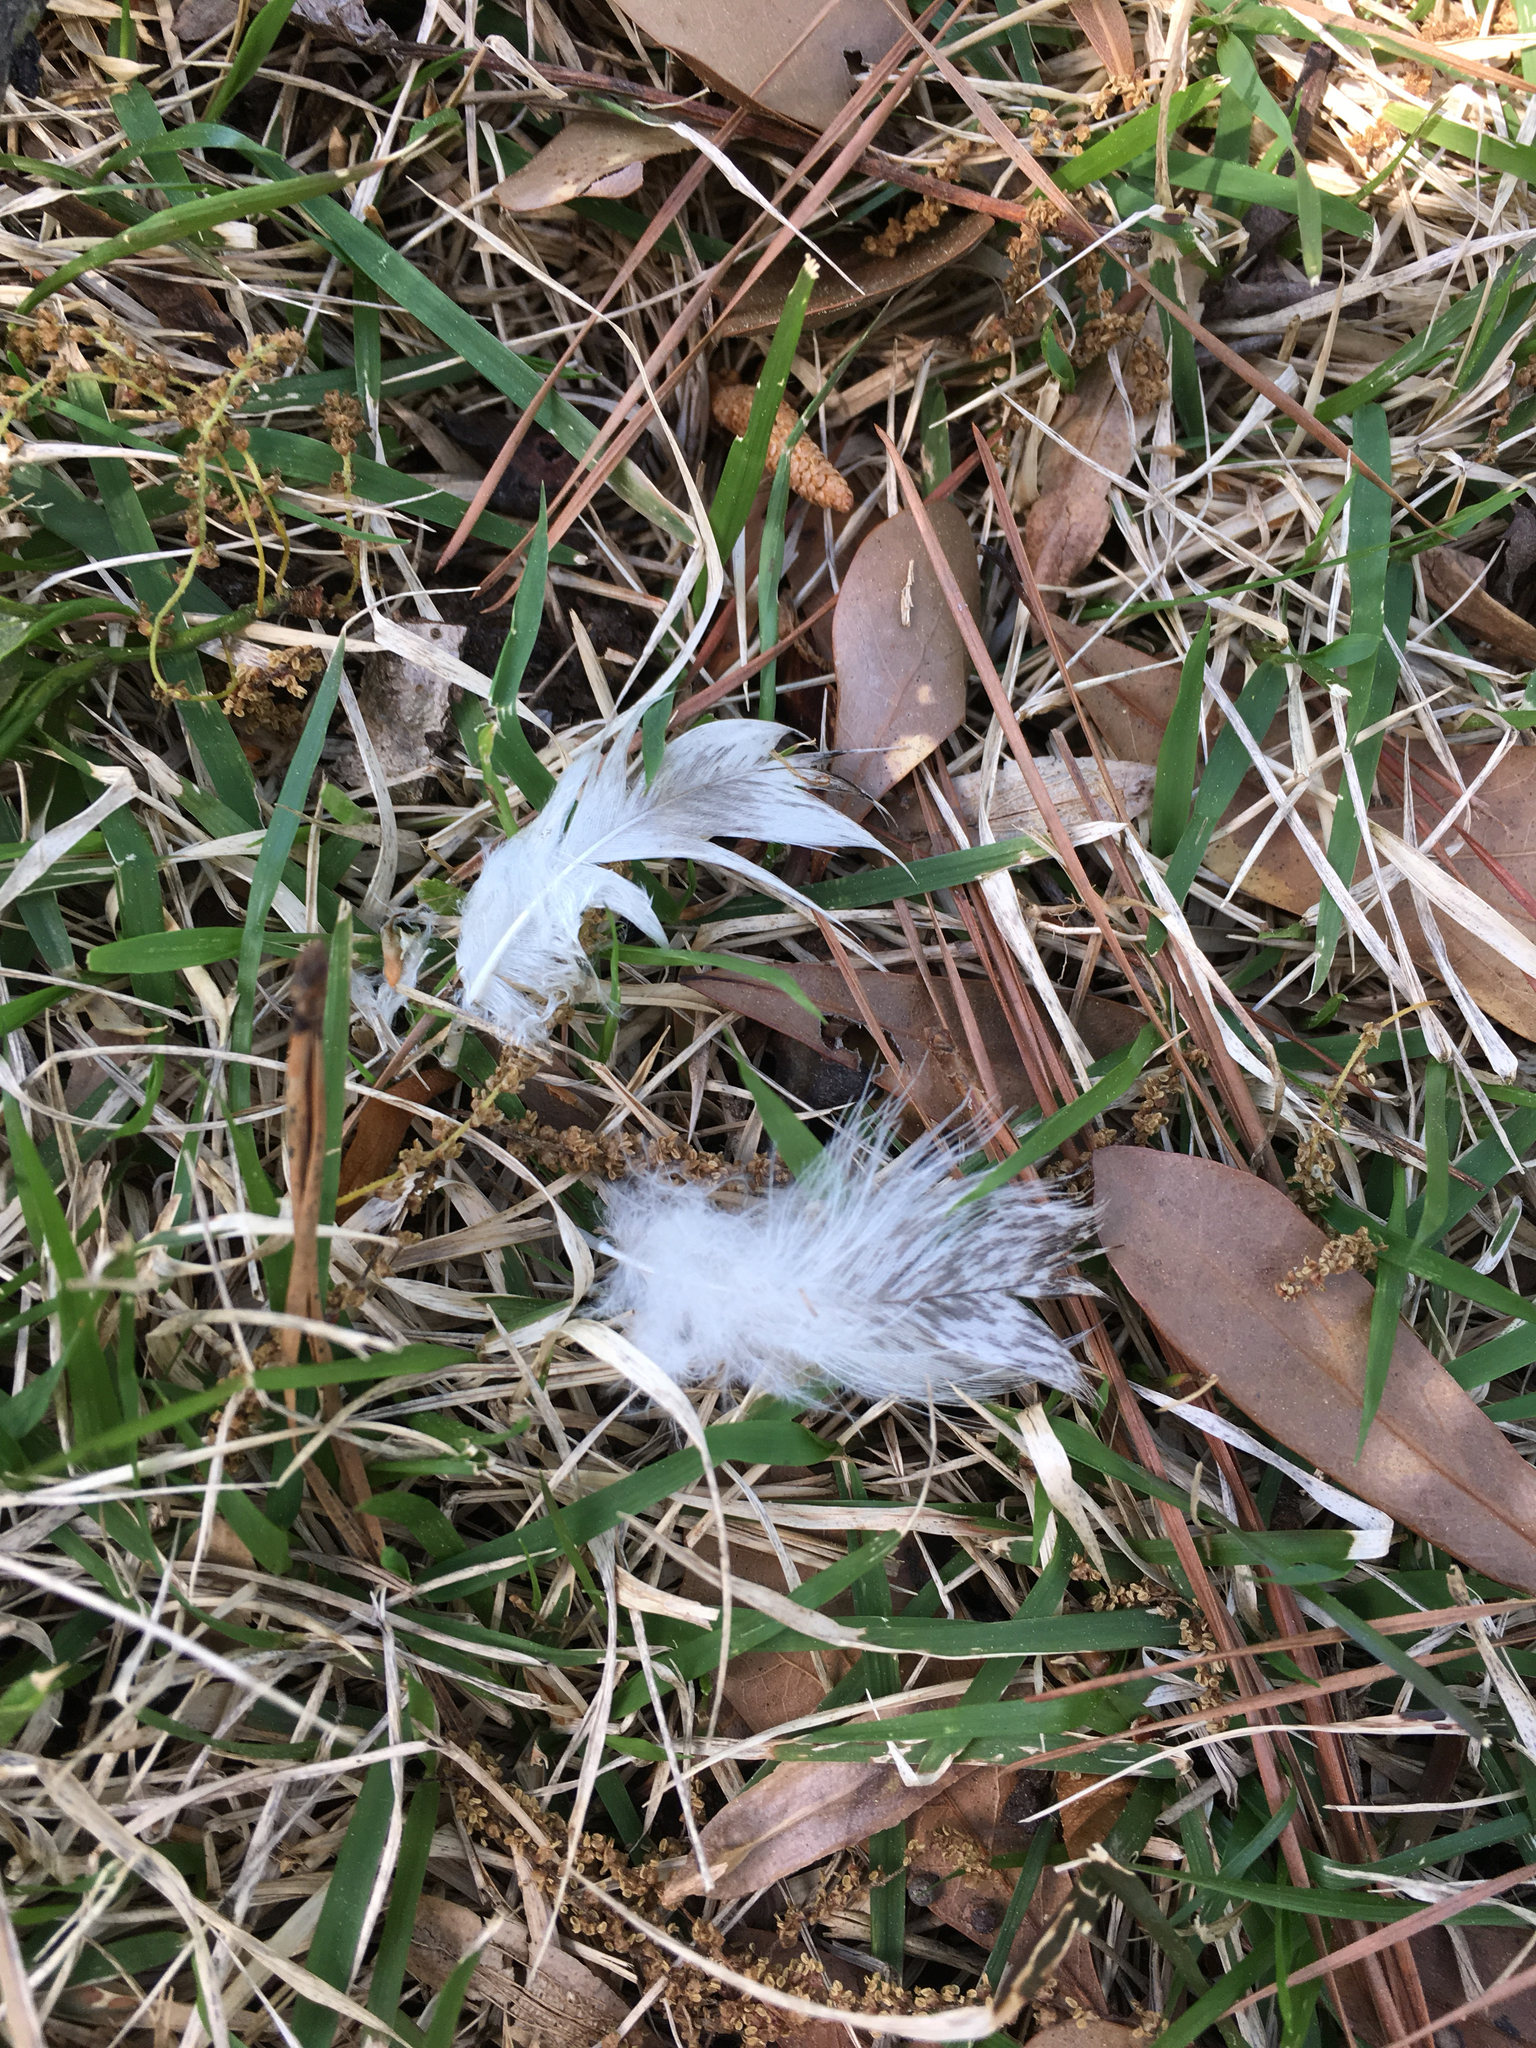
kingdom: Animalia
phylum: Chordata
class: Aves
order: Anseriformes
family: Anatidae
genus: Cairina
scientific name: Cairina moschata
